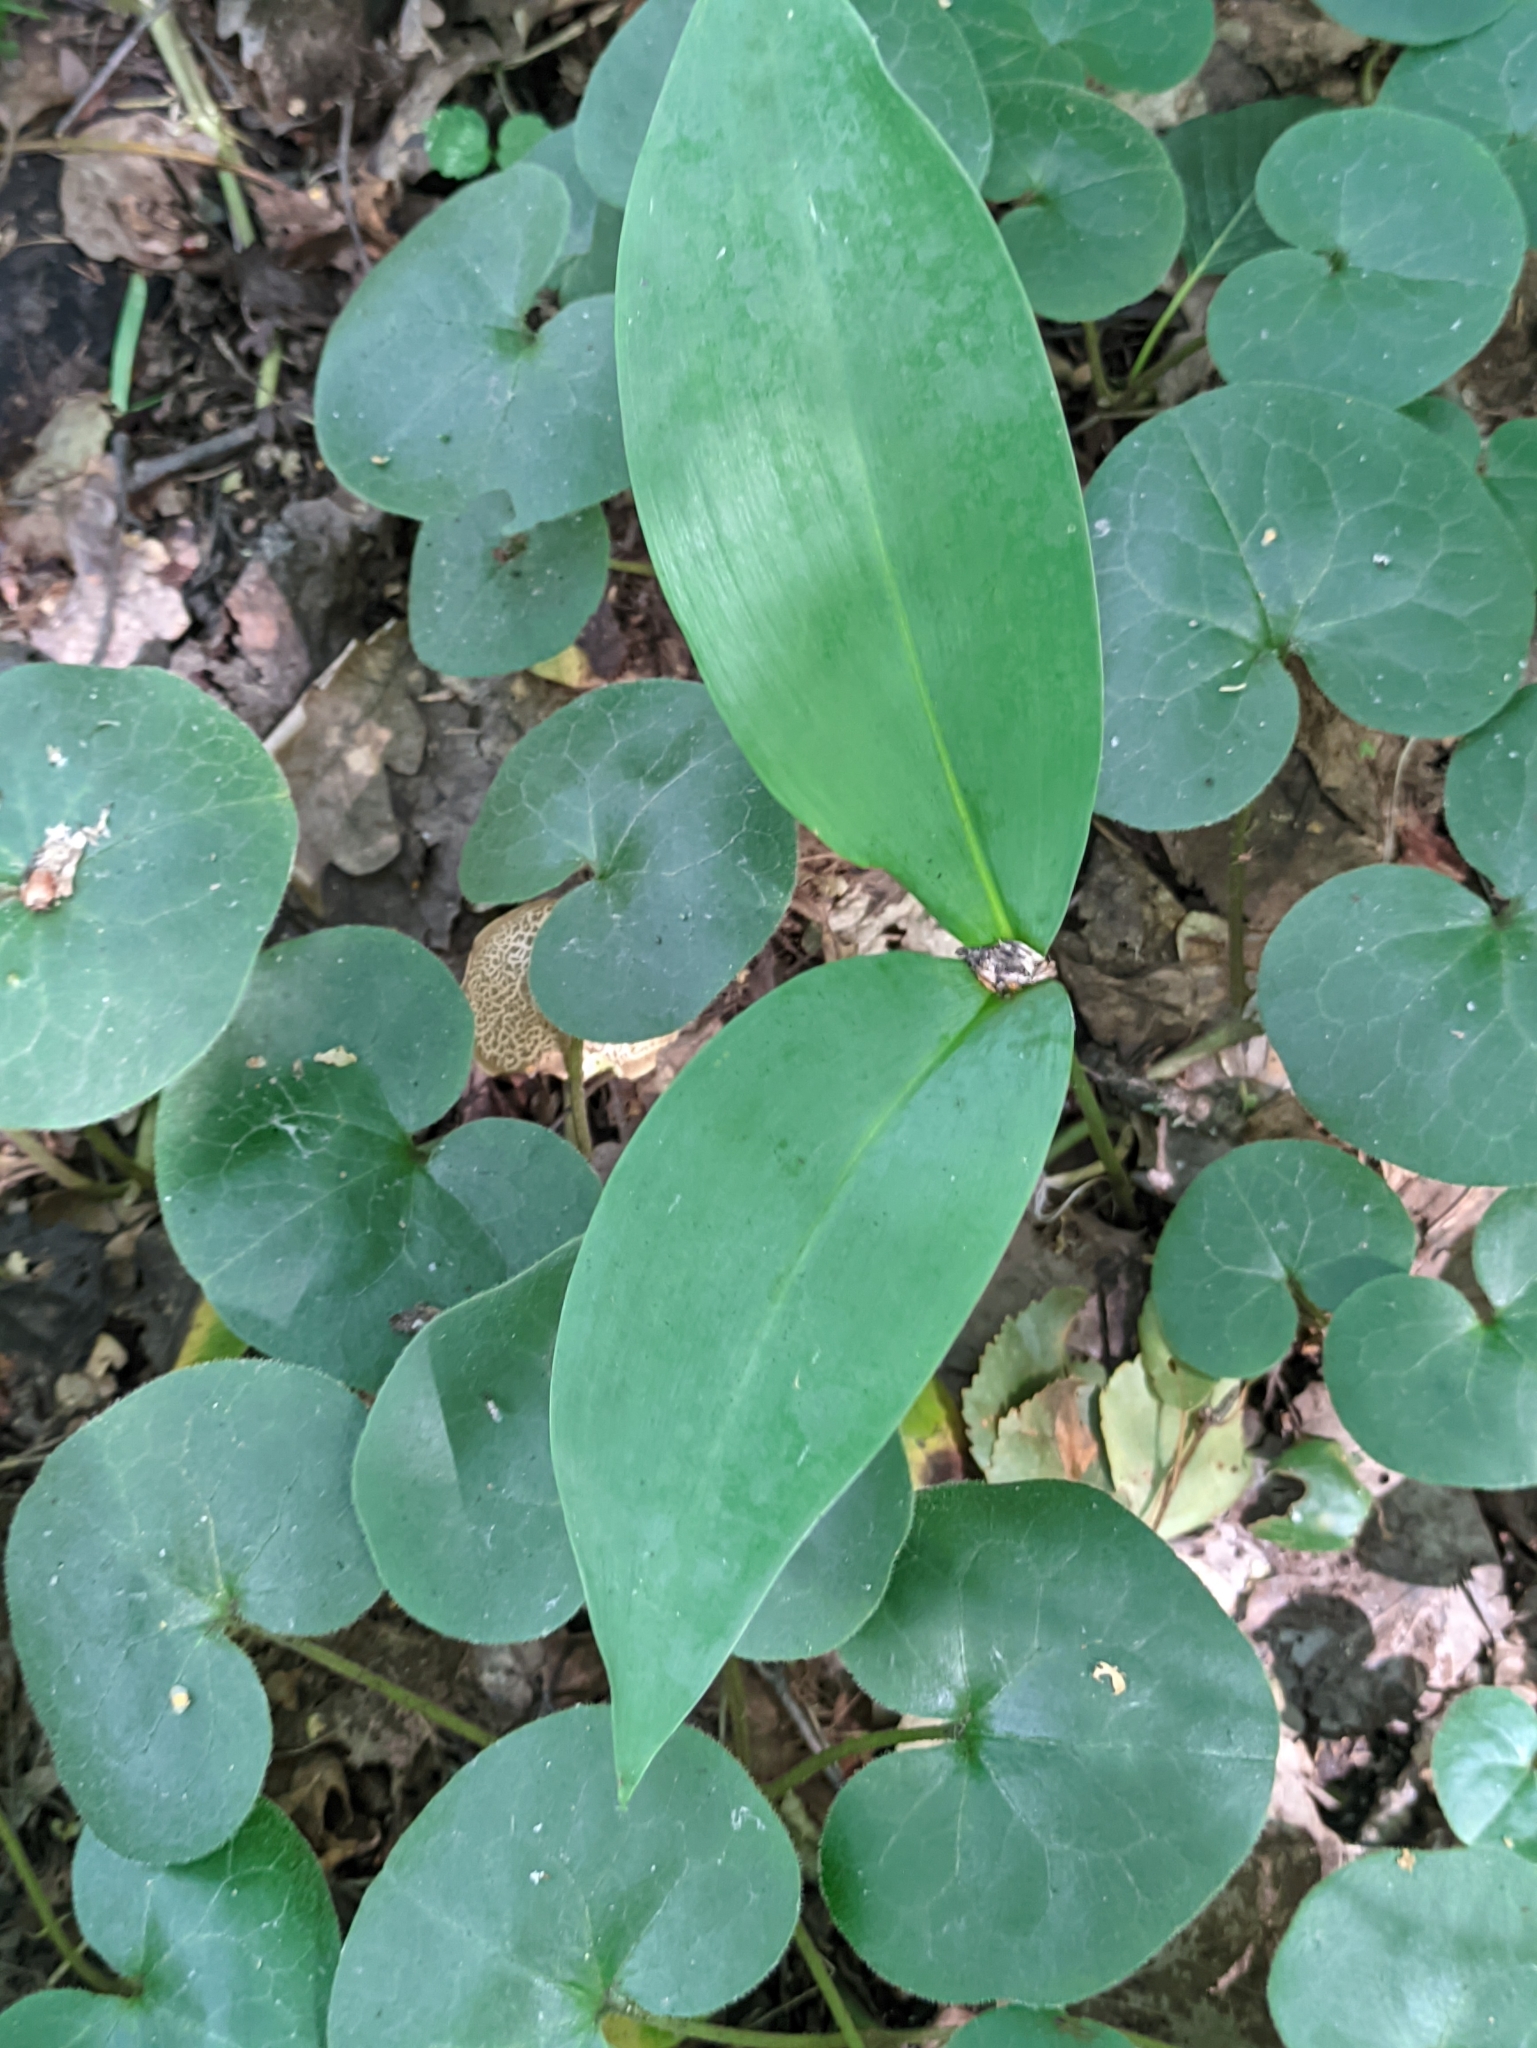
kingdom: Plantae
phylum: Tracheophyta
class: Liliopsida
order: Asparagales
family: Asparagaceae
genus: Convallaria
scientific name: Convallaria majalis
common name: Lily-of-the-valley
